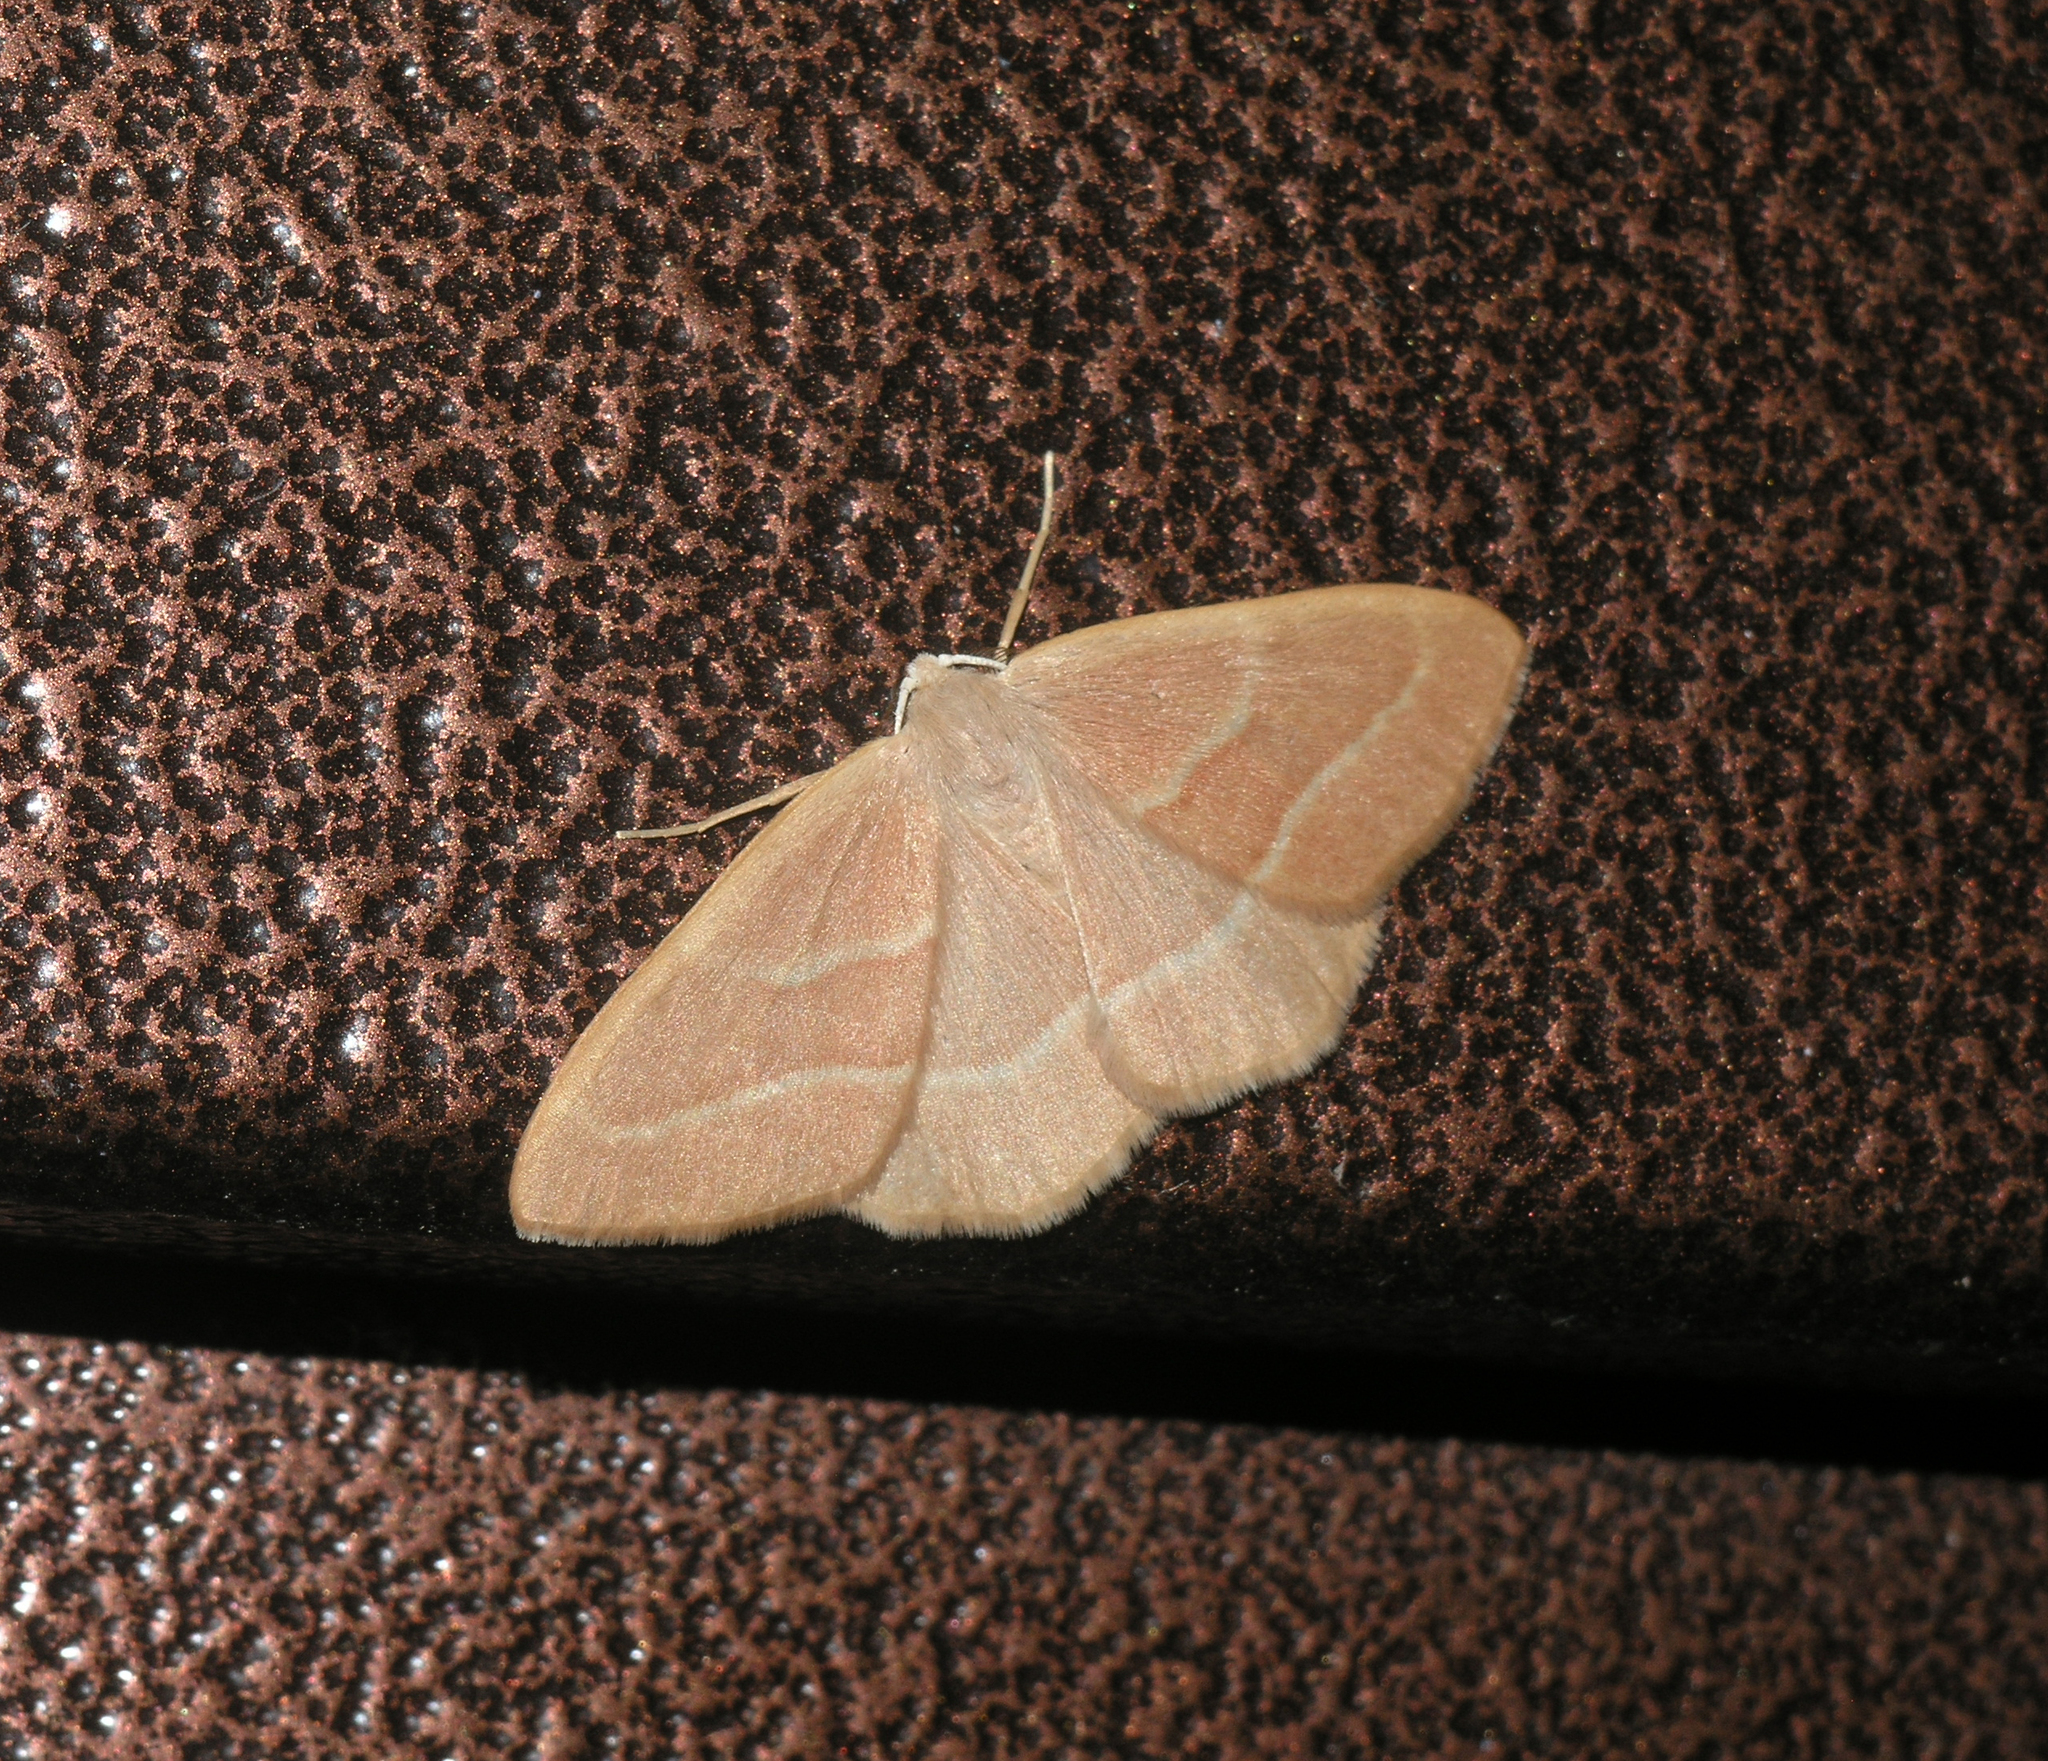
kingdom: Animalia
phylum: Arthropoda
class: Insecta
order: Lepidoptera
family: Geometridae
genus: Hylaea
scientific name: Hylaea fasciaria
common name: Barred red
